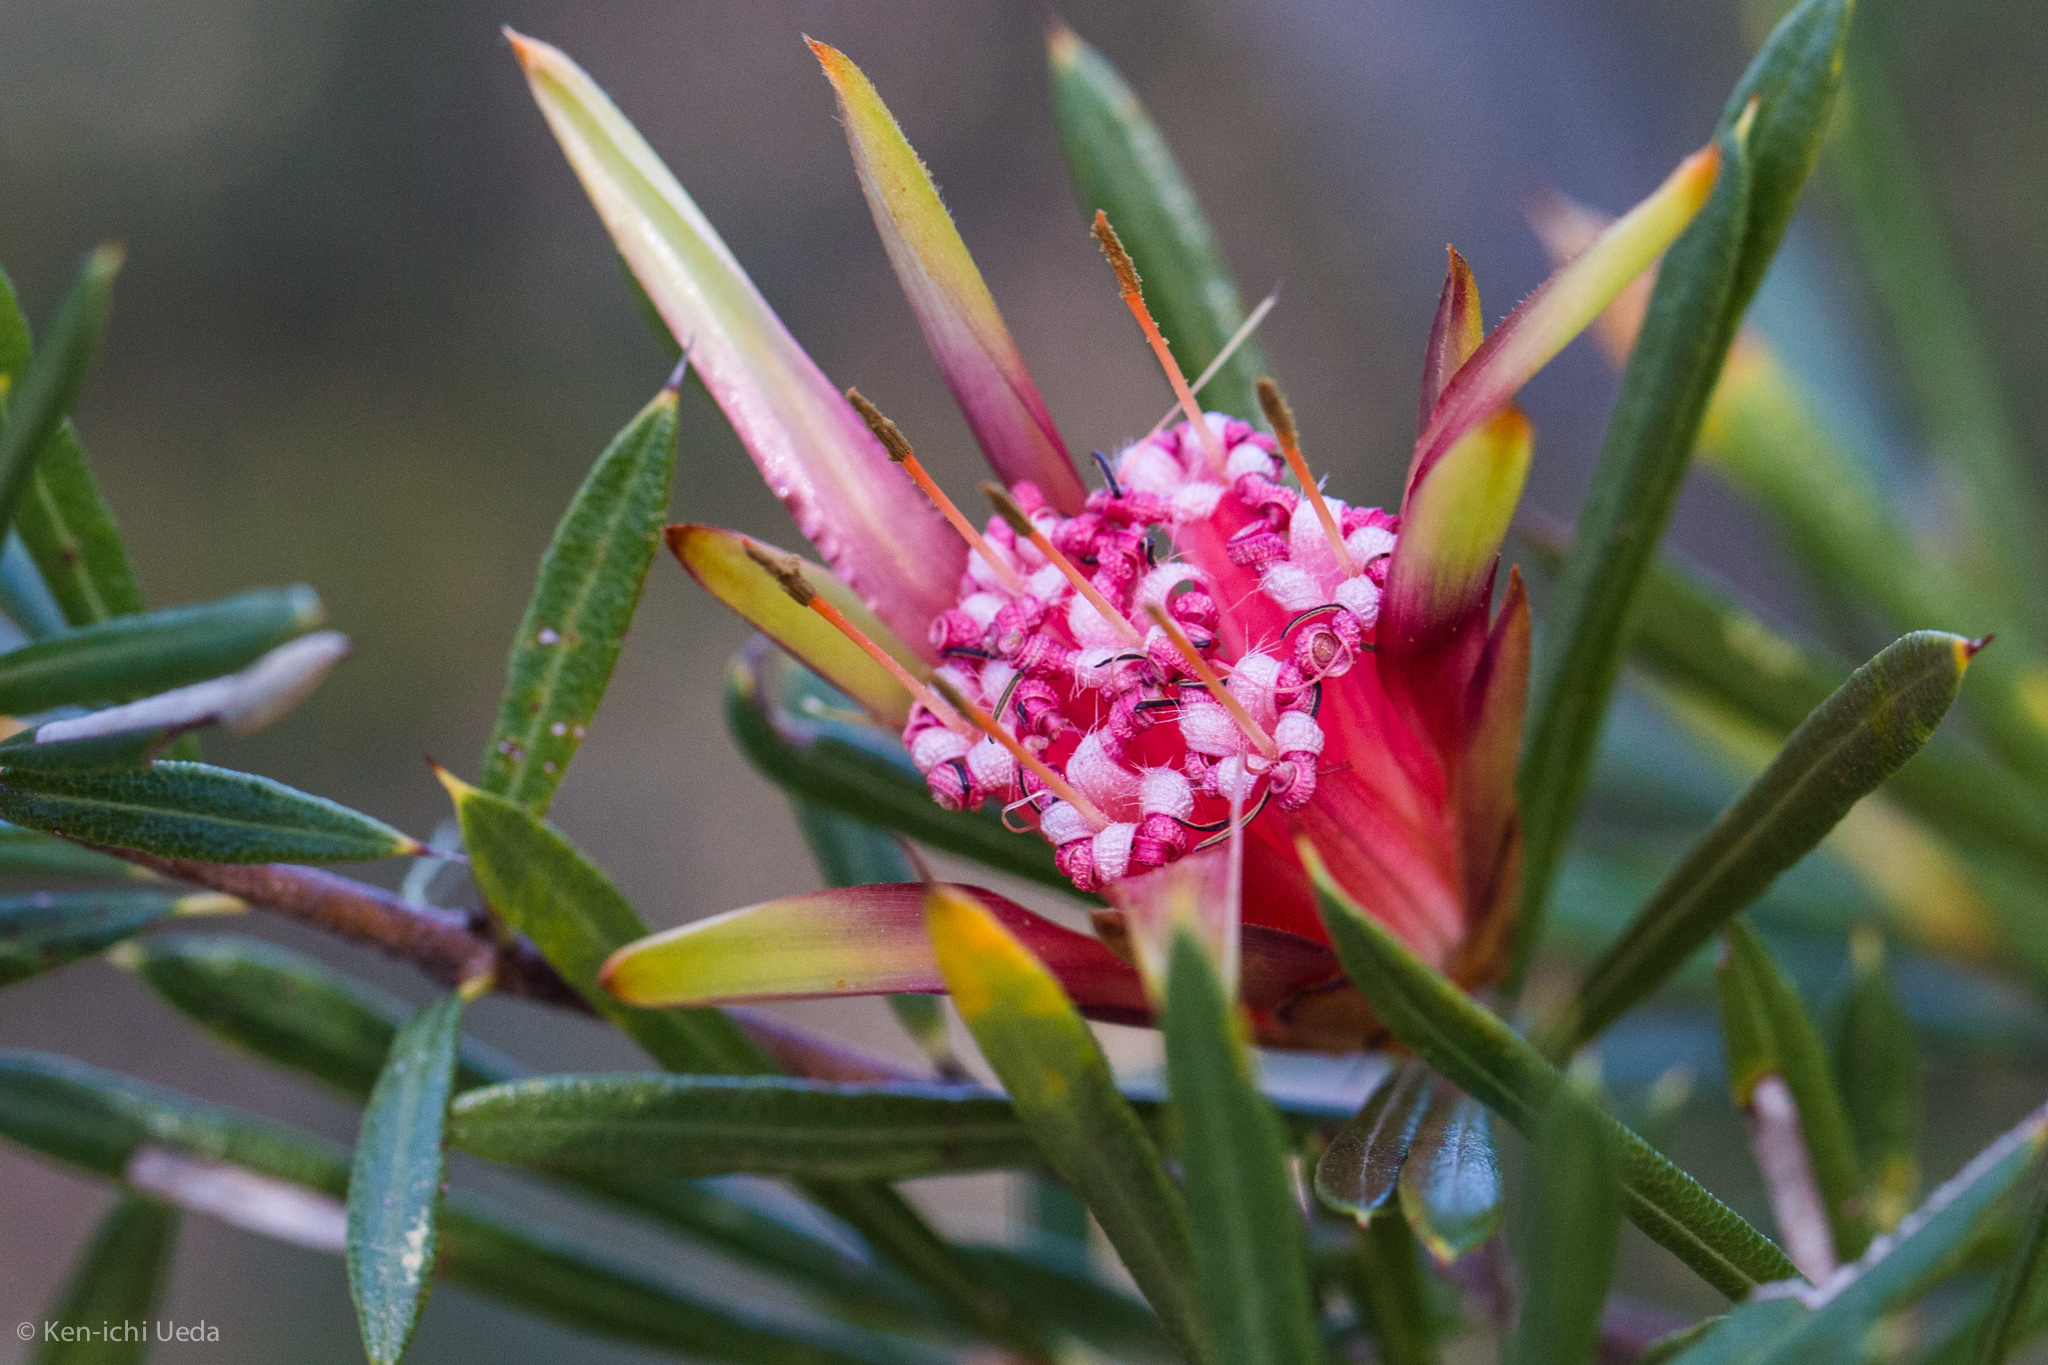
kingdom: Plantae
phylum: Tracheophyta
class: Magnoliopsida
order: Proteales
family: Proteaceae
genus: Lambertia
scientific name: Lambertia formosa
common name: Mountain-devil
